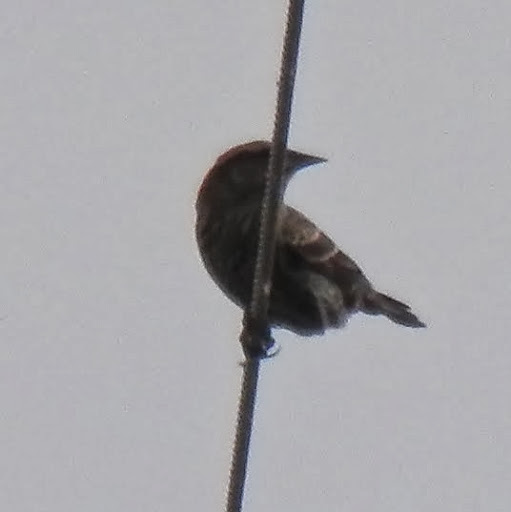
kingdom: Animalia
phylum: Chordata
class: Aves
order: Passeriformes
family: Icteridae
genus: Agelaius
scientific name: Agelaius
